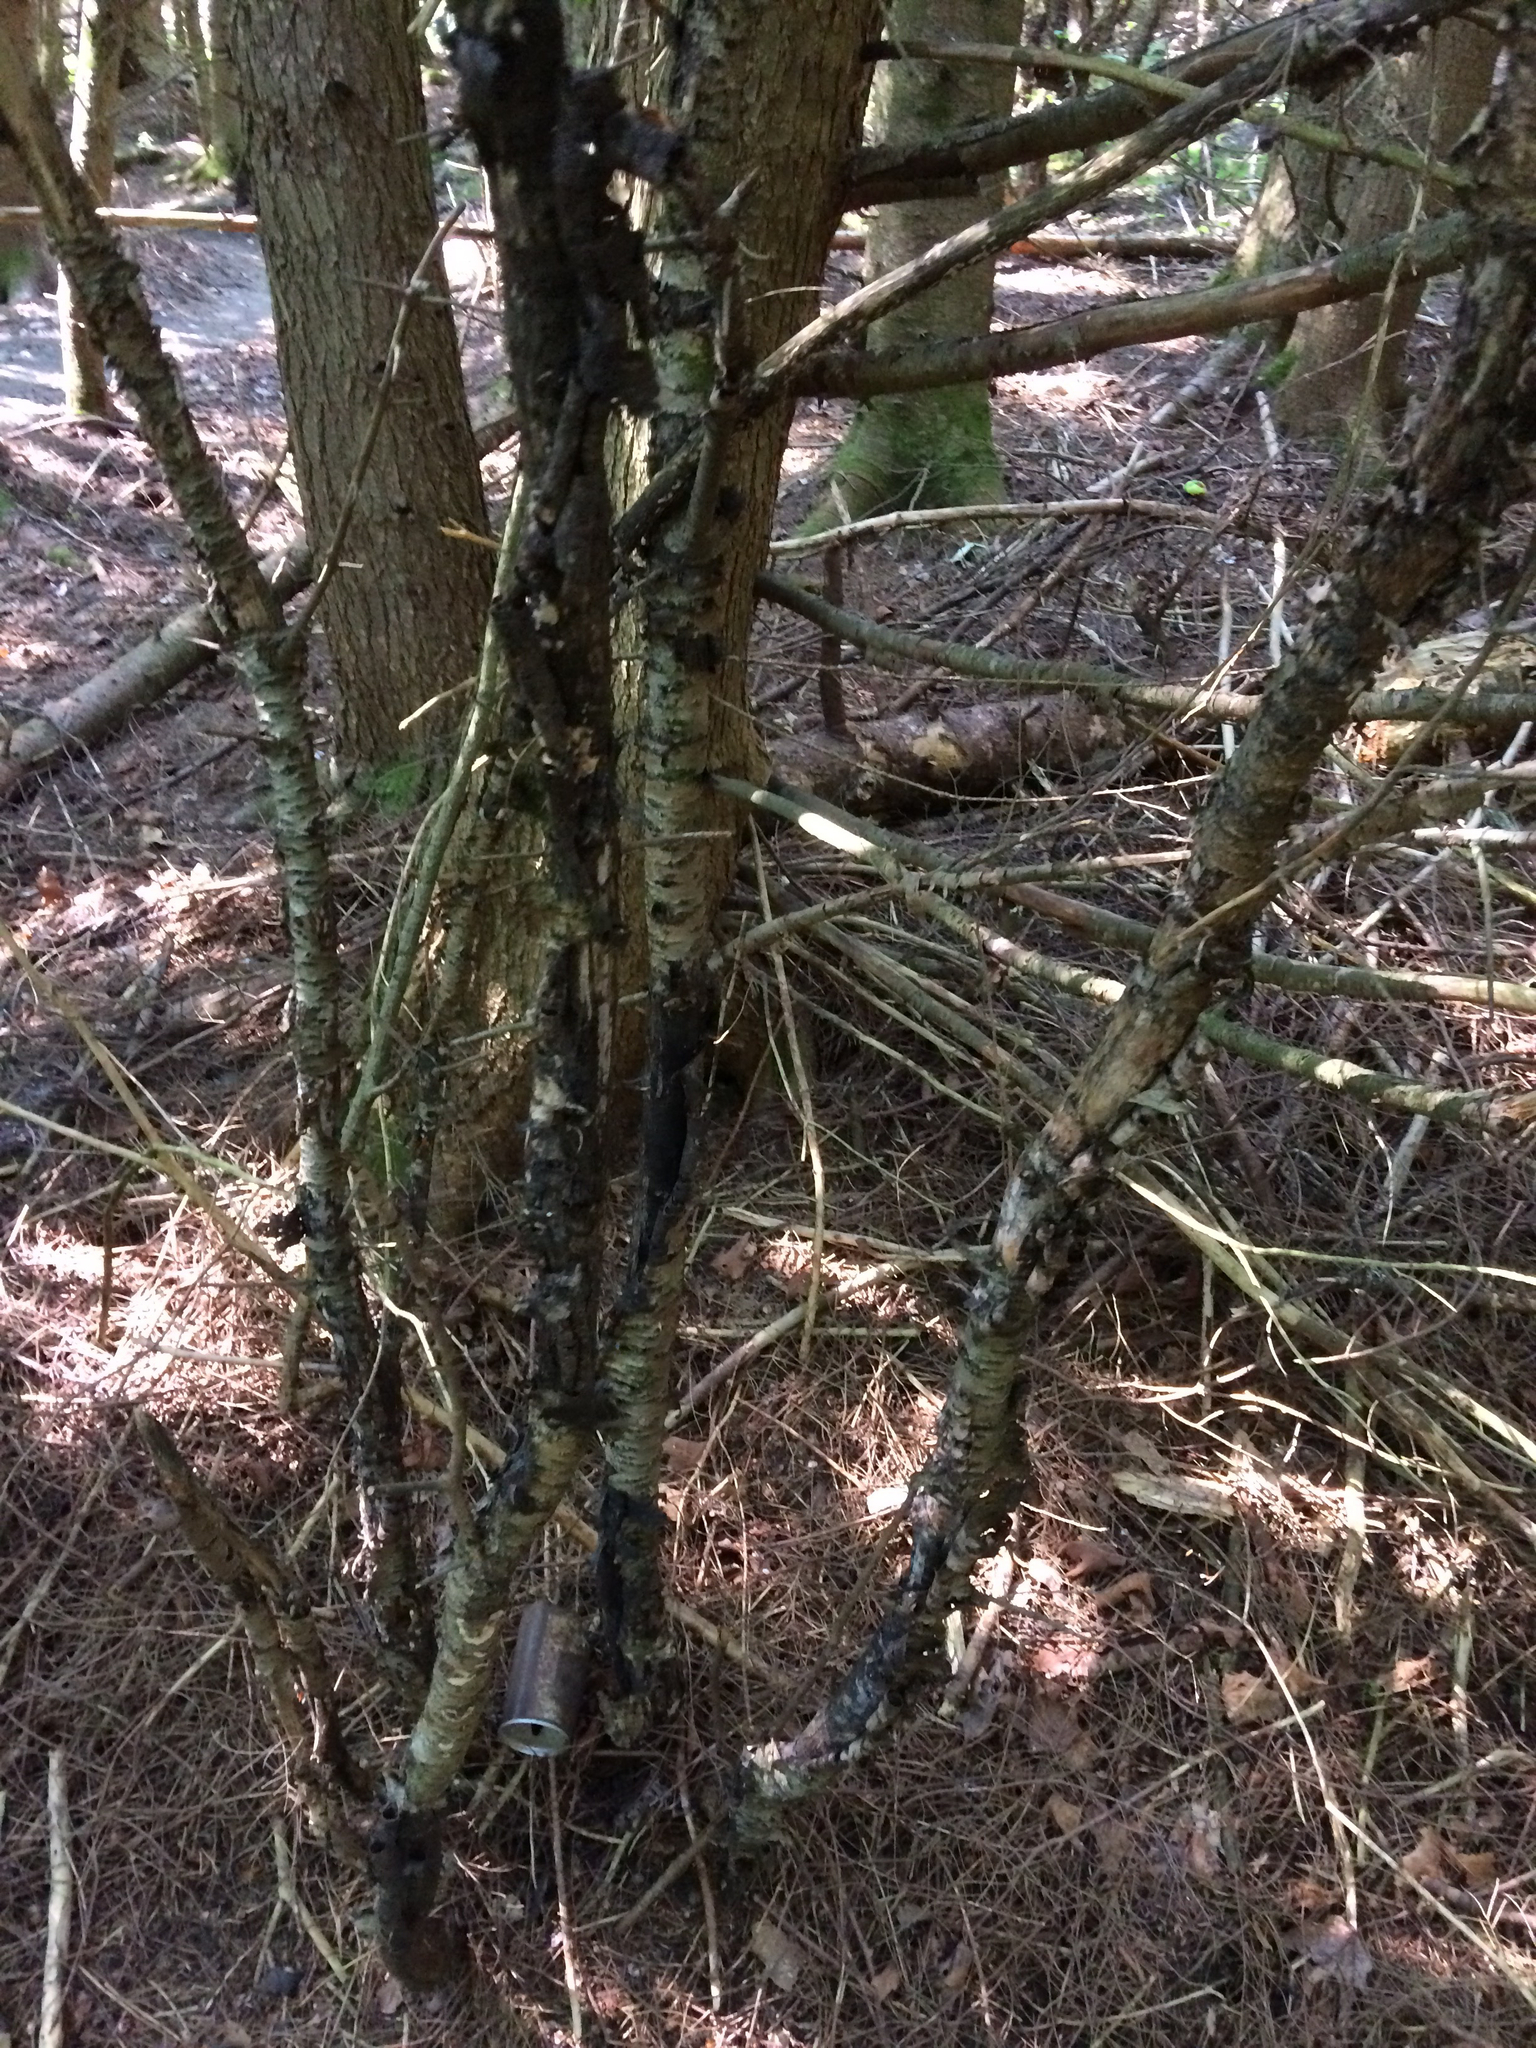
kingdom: Plantae
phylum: Tracheophyta
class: Magnoliopsida
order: Rosales
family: Rhamnaceae
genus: Rhamnus
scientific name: Rhamnus cathartica
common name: Common buckthorn
